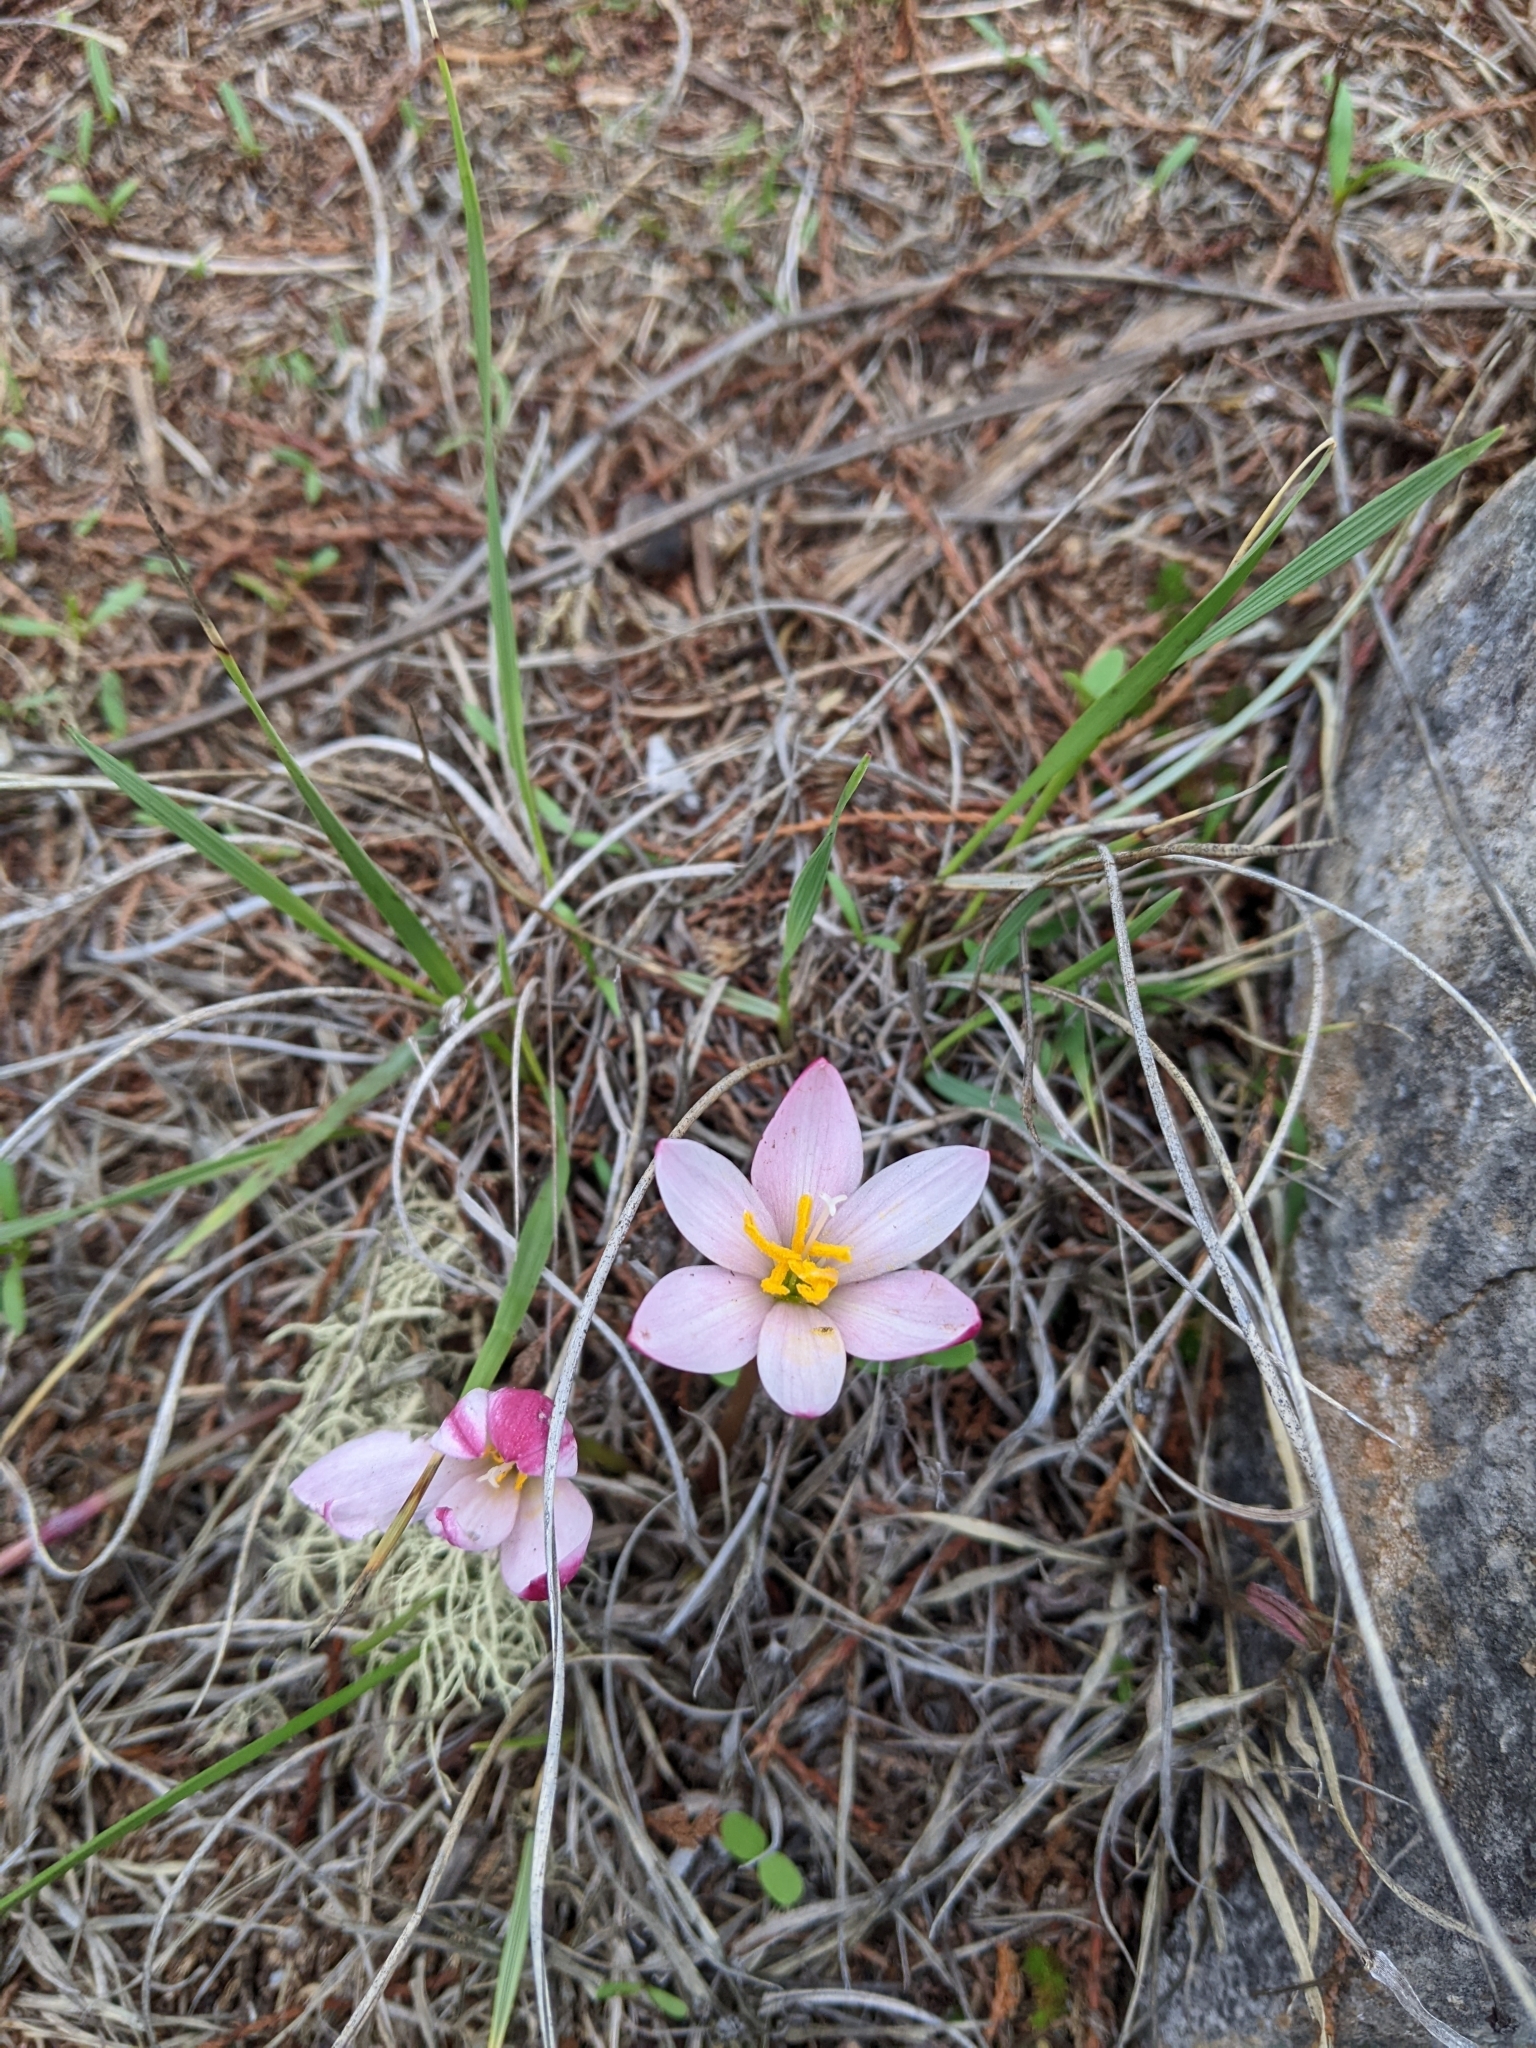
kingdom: Plantae
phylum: Tracheophyta
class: Liliopsida
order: Asparagales
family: Amaryllidaceae
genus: Zephyranthes
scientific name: Zephyranthes fosteri
